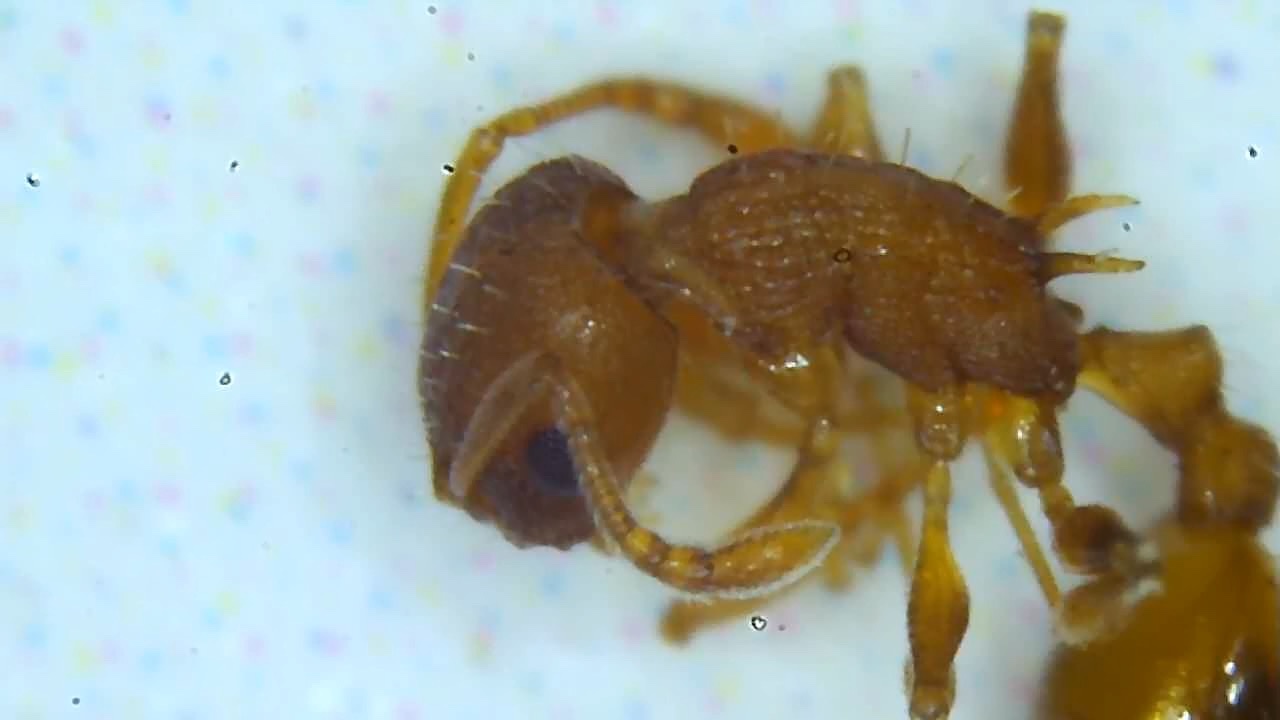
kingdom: Animalia
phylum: Arthropoda
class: Insecta
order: Hymenoptera
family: Formicidae
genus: Temnothorax
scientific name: Temnothorax curvispinosus
